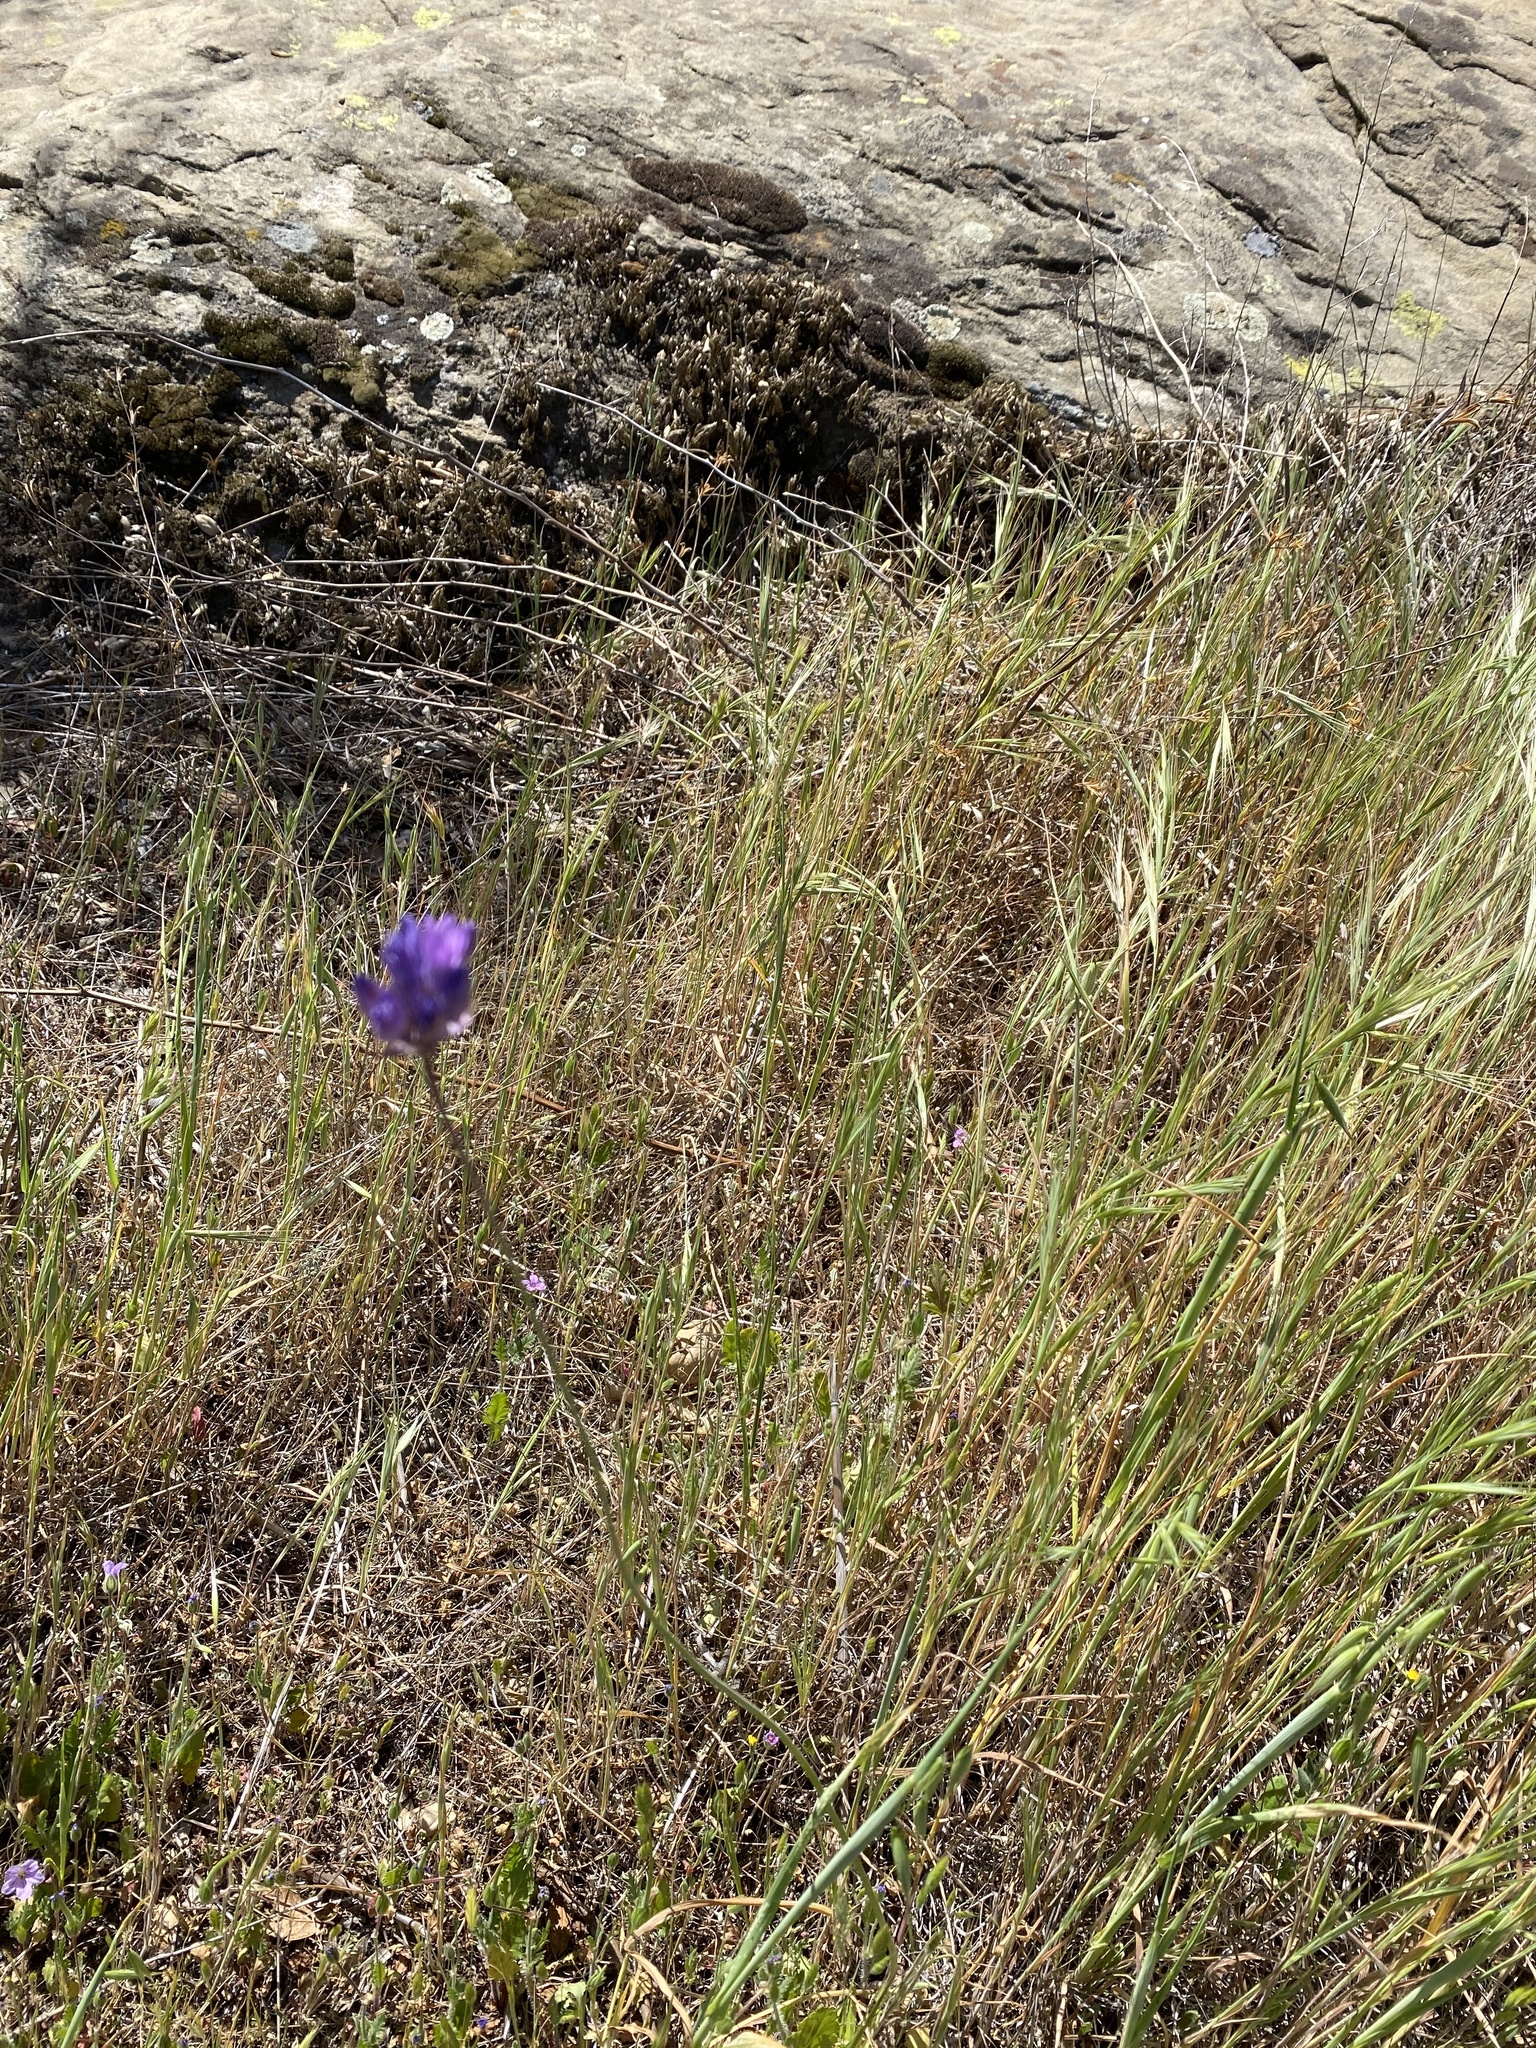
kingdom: Plantae
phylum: Tracheophyta
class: Liliopsida
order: Asparagales
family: Asparagaceae
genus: Dipterostemon
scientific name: Dipterostemon capitatus
